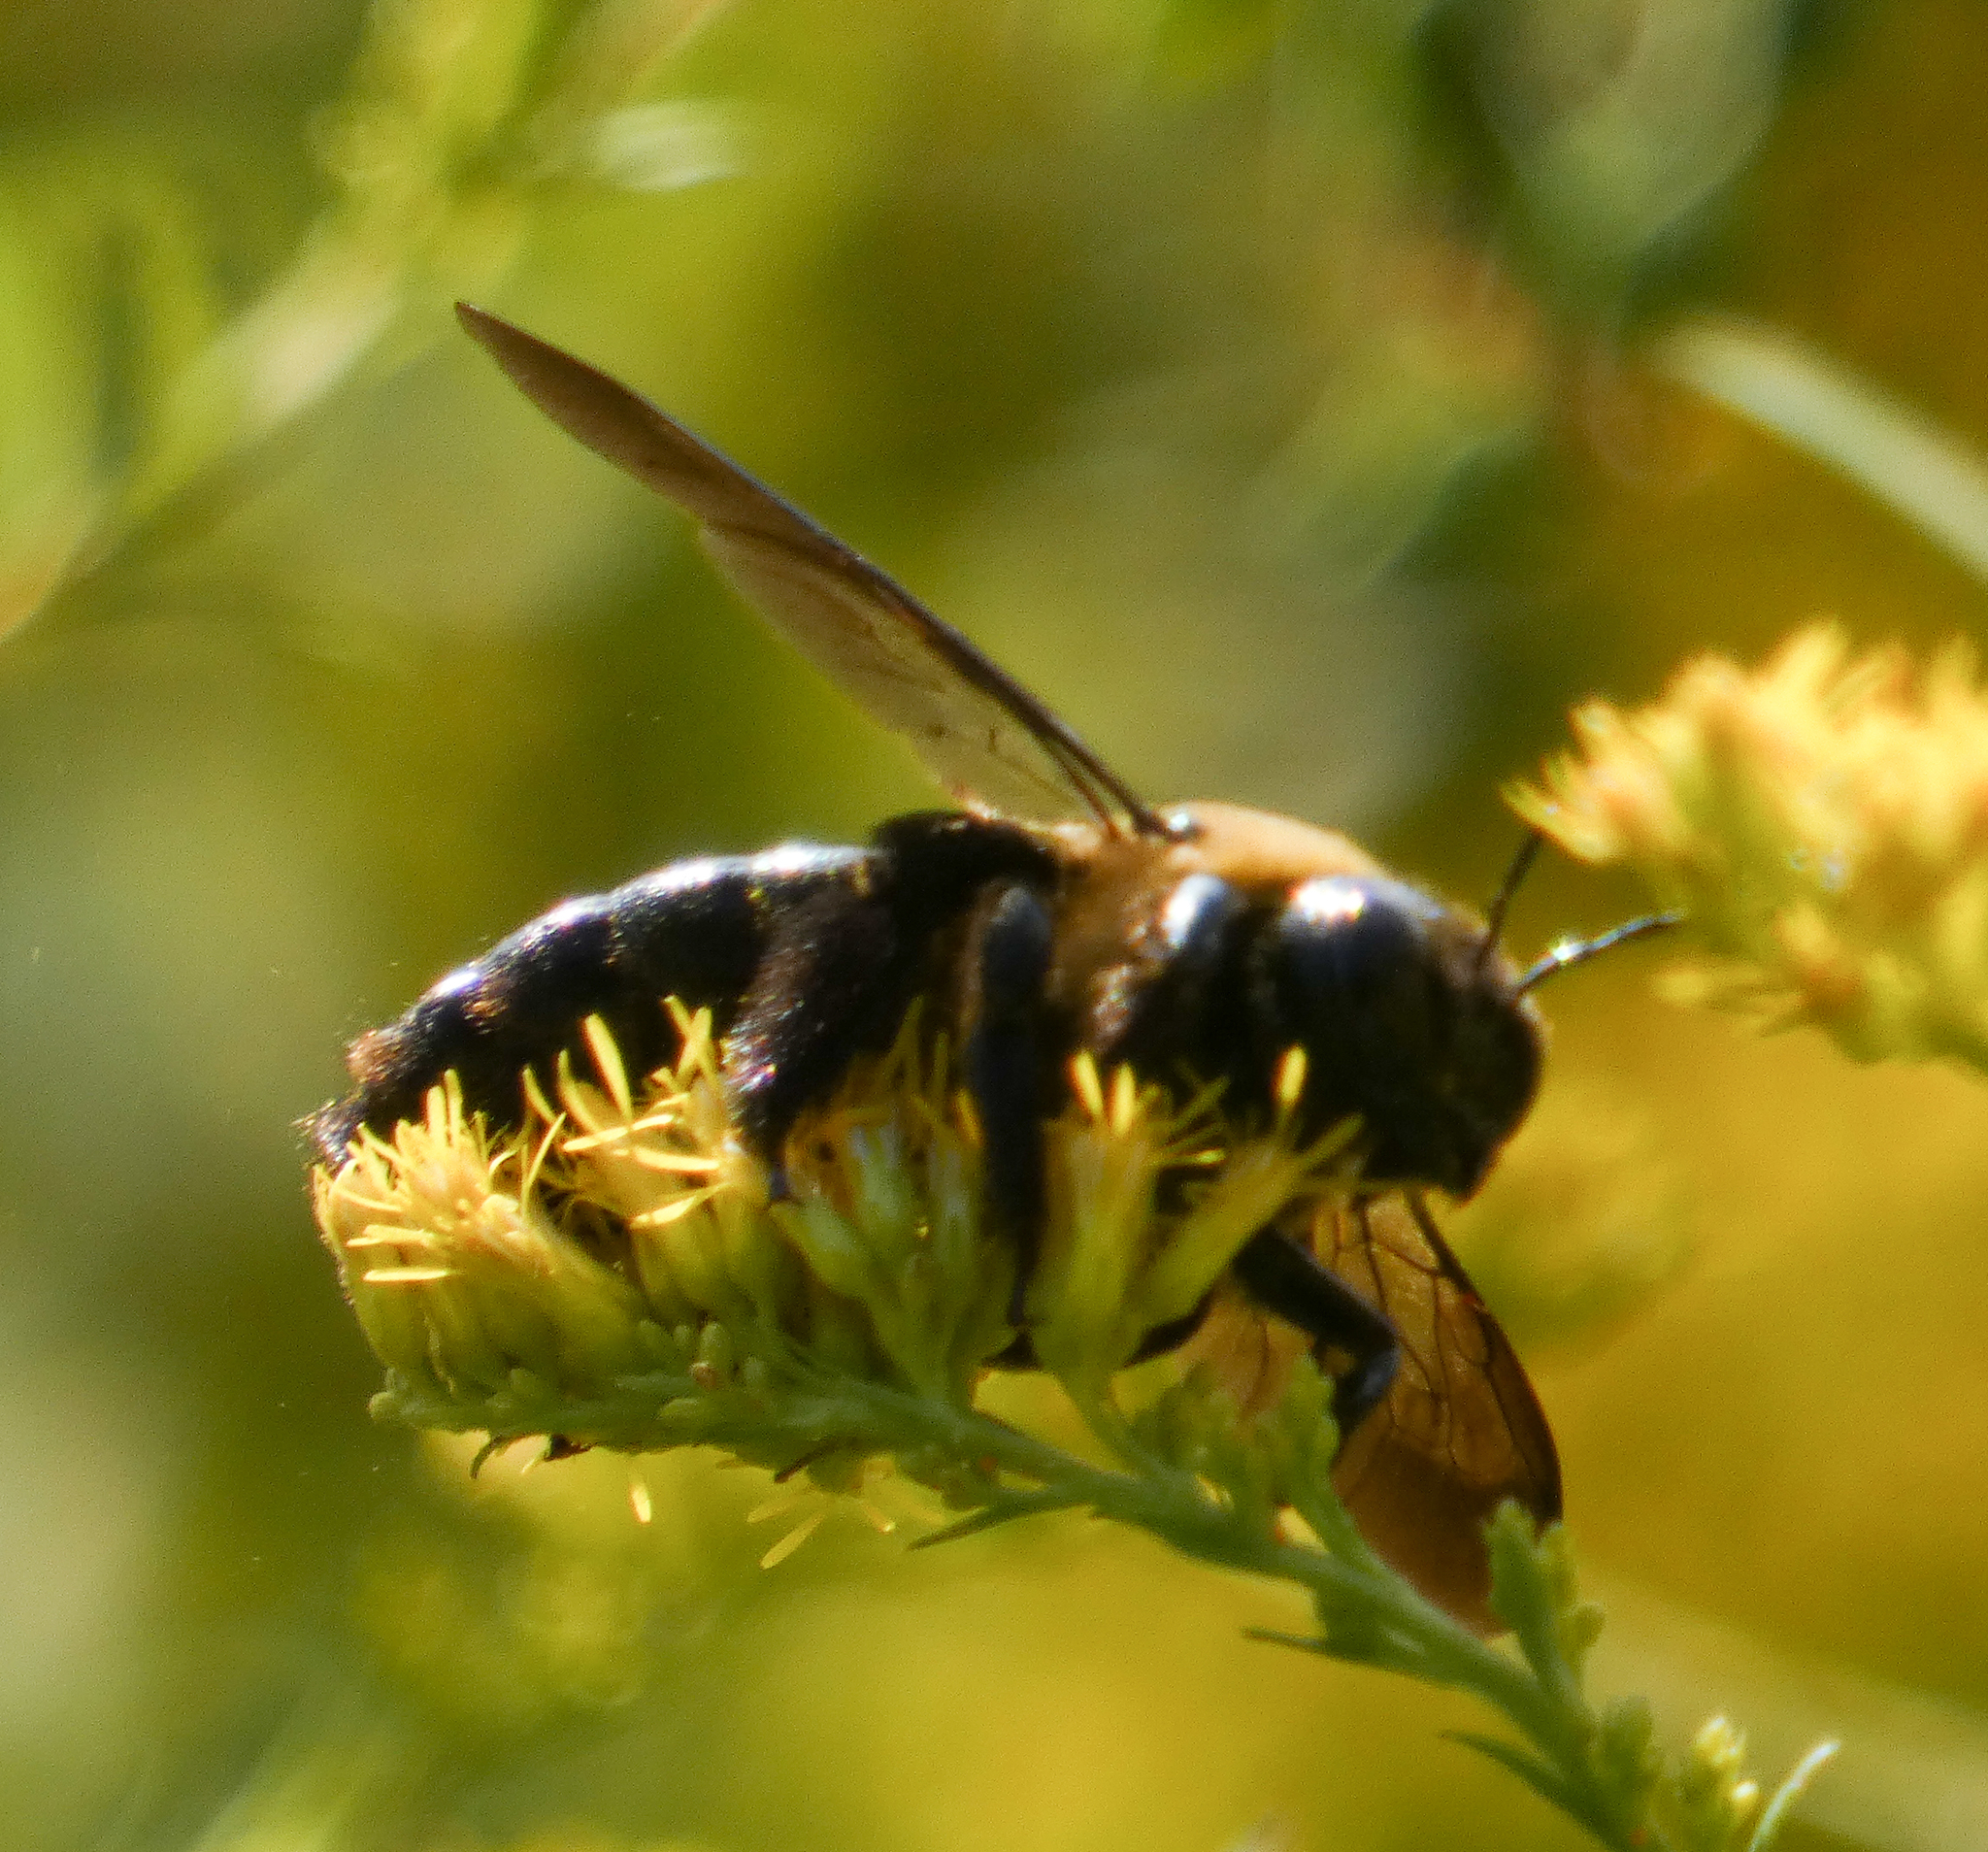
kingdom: Animalia
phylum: Arthropoda
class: Insecta
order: Hymenoptera
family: Apidae
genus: Xylocopa
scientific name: Xylocopa virginica
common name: Carpenter bee
